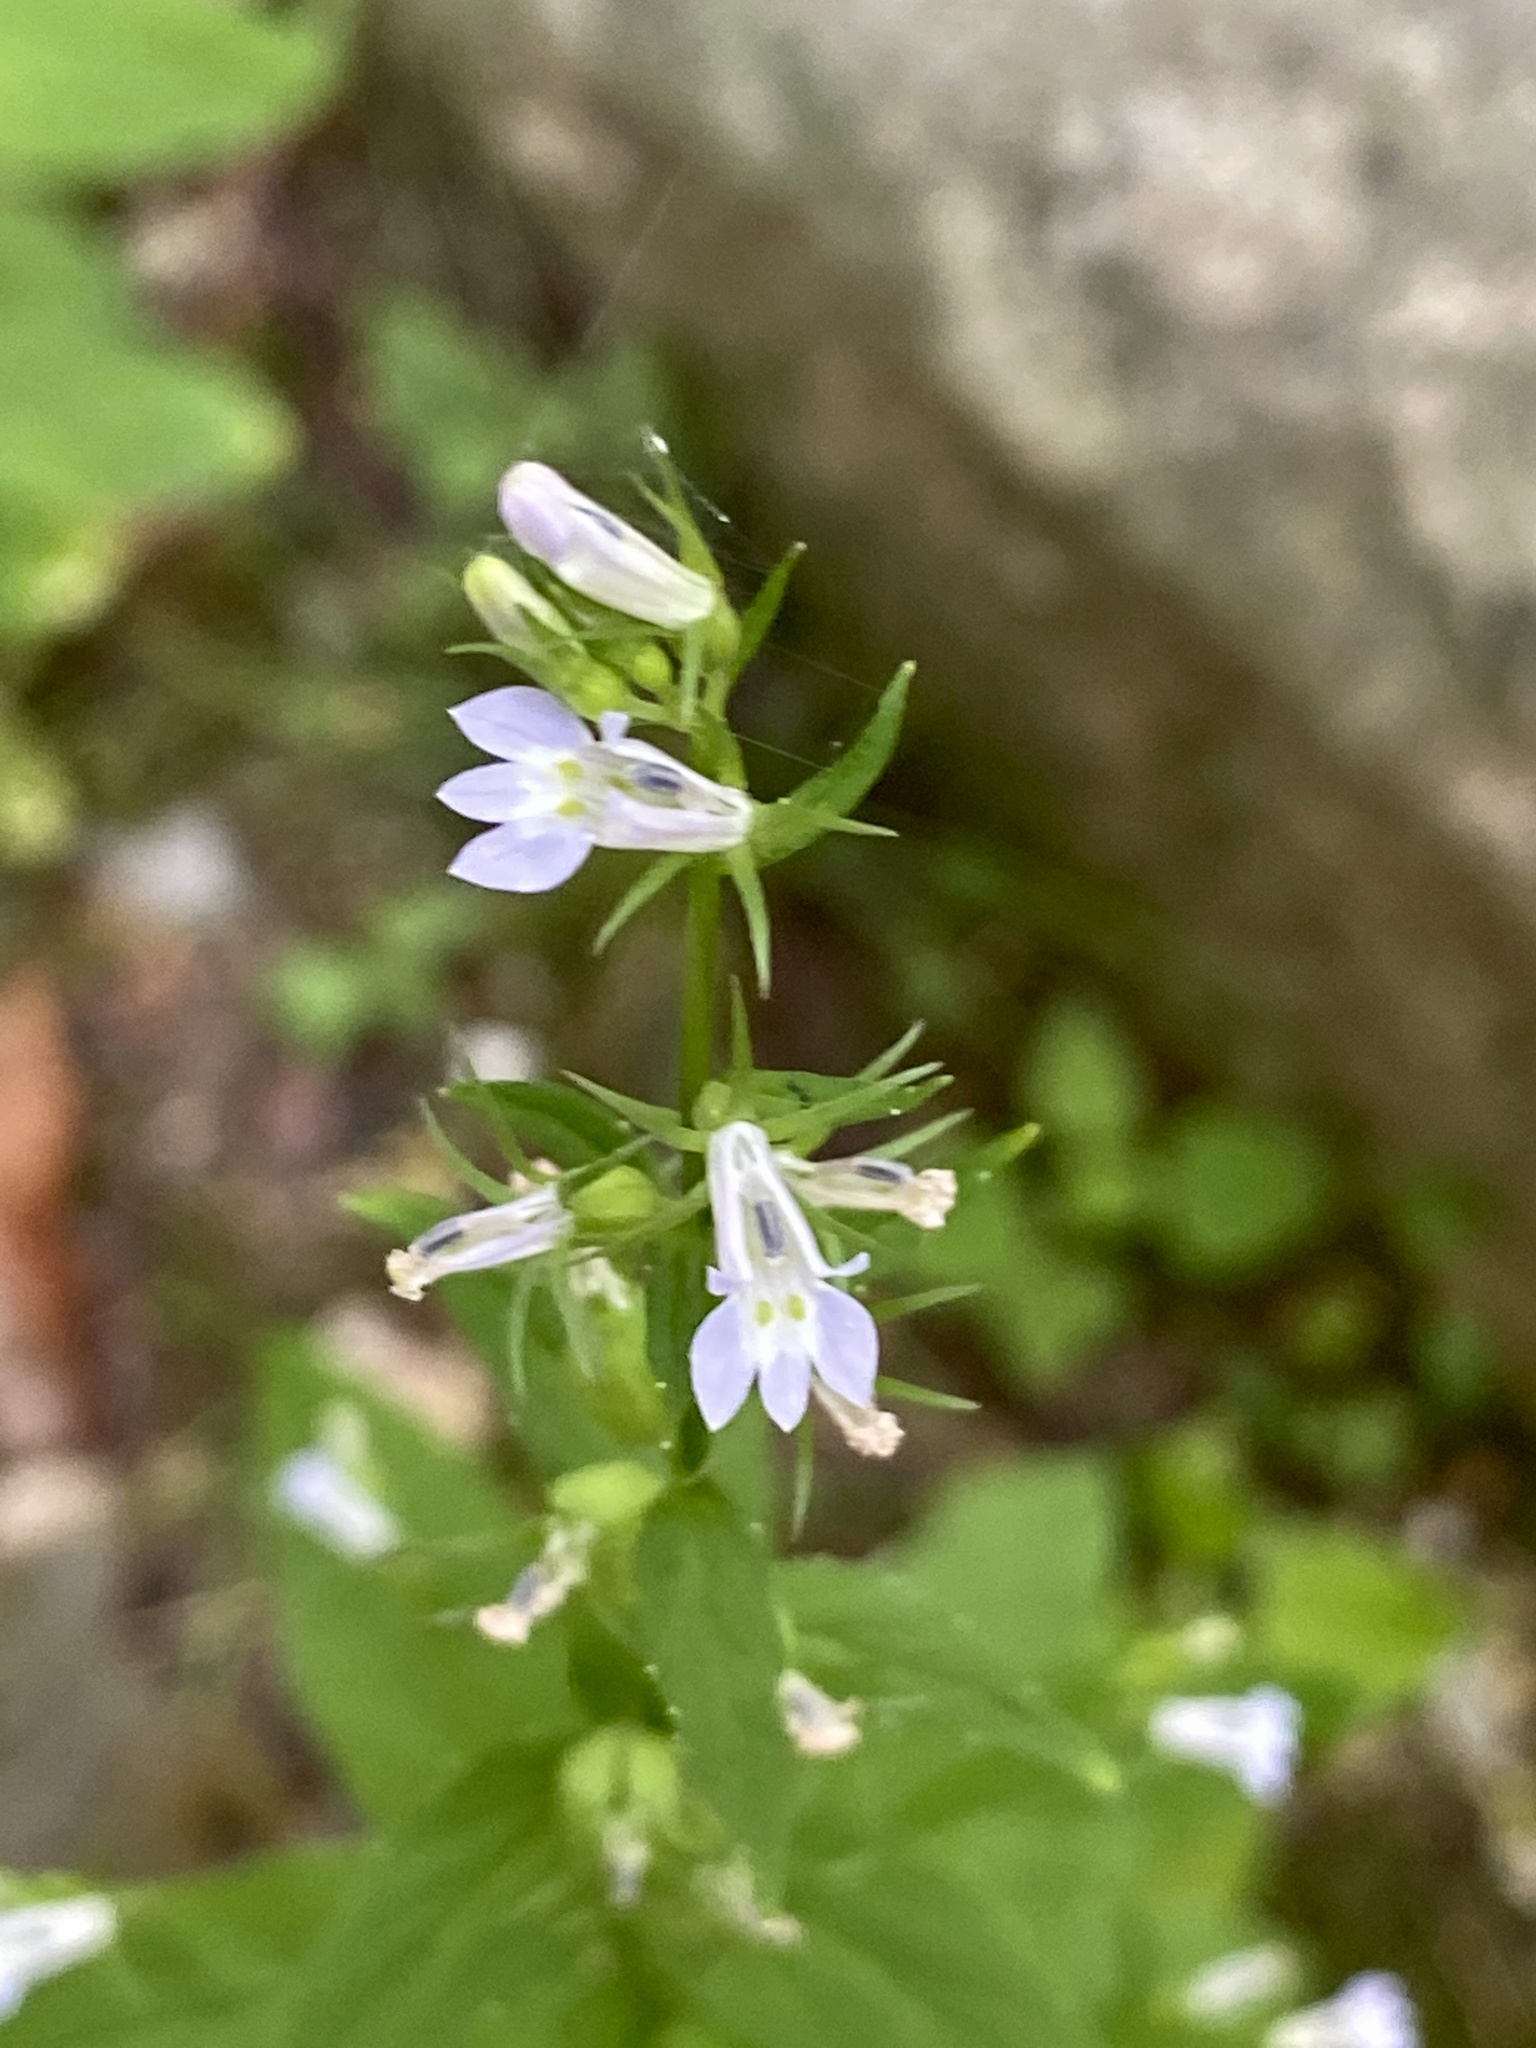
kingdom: Plantae
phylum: Tracheophyta
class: Magnoliopsida
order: Asterales
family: Campanulaceae
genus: Lobelia
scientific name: Lobelia inflata
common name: Indian tobacco
